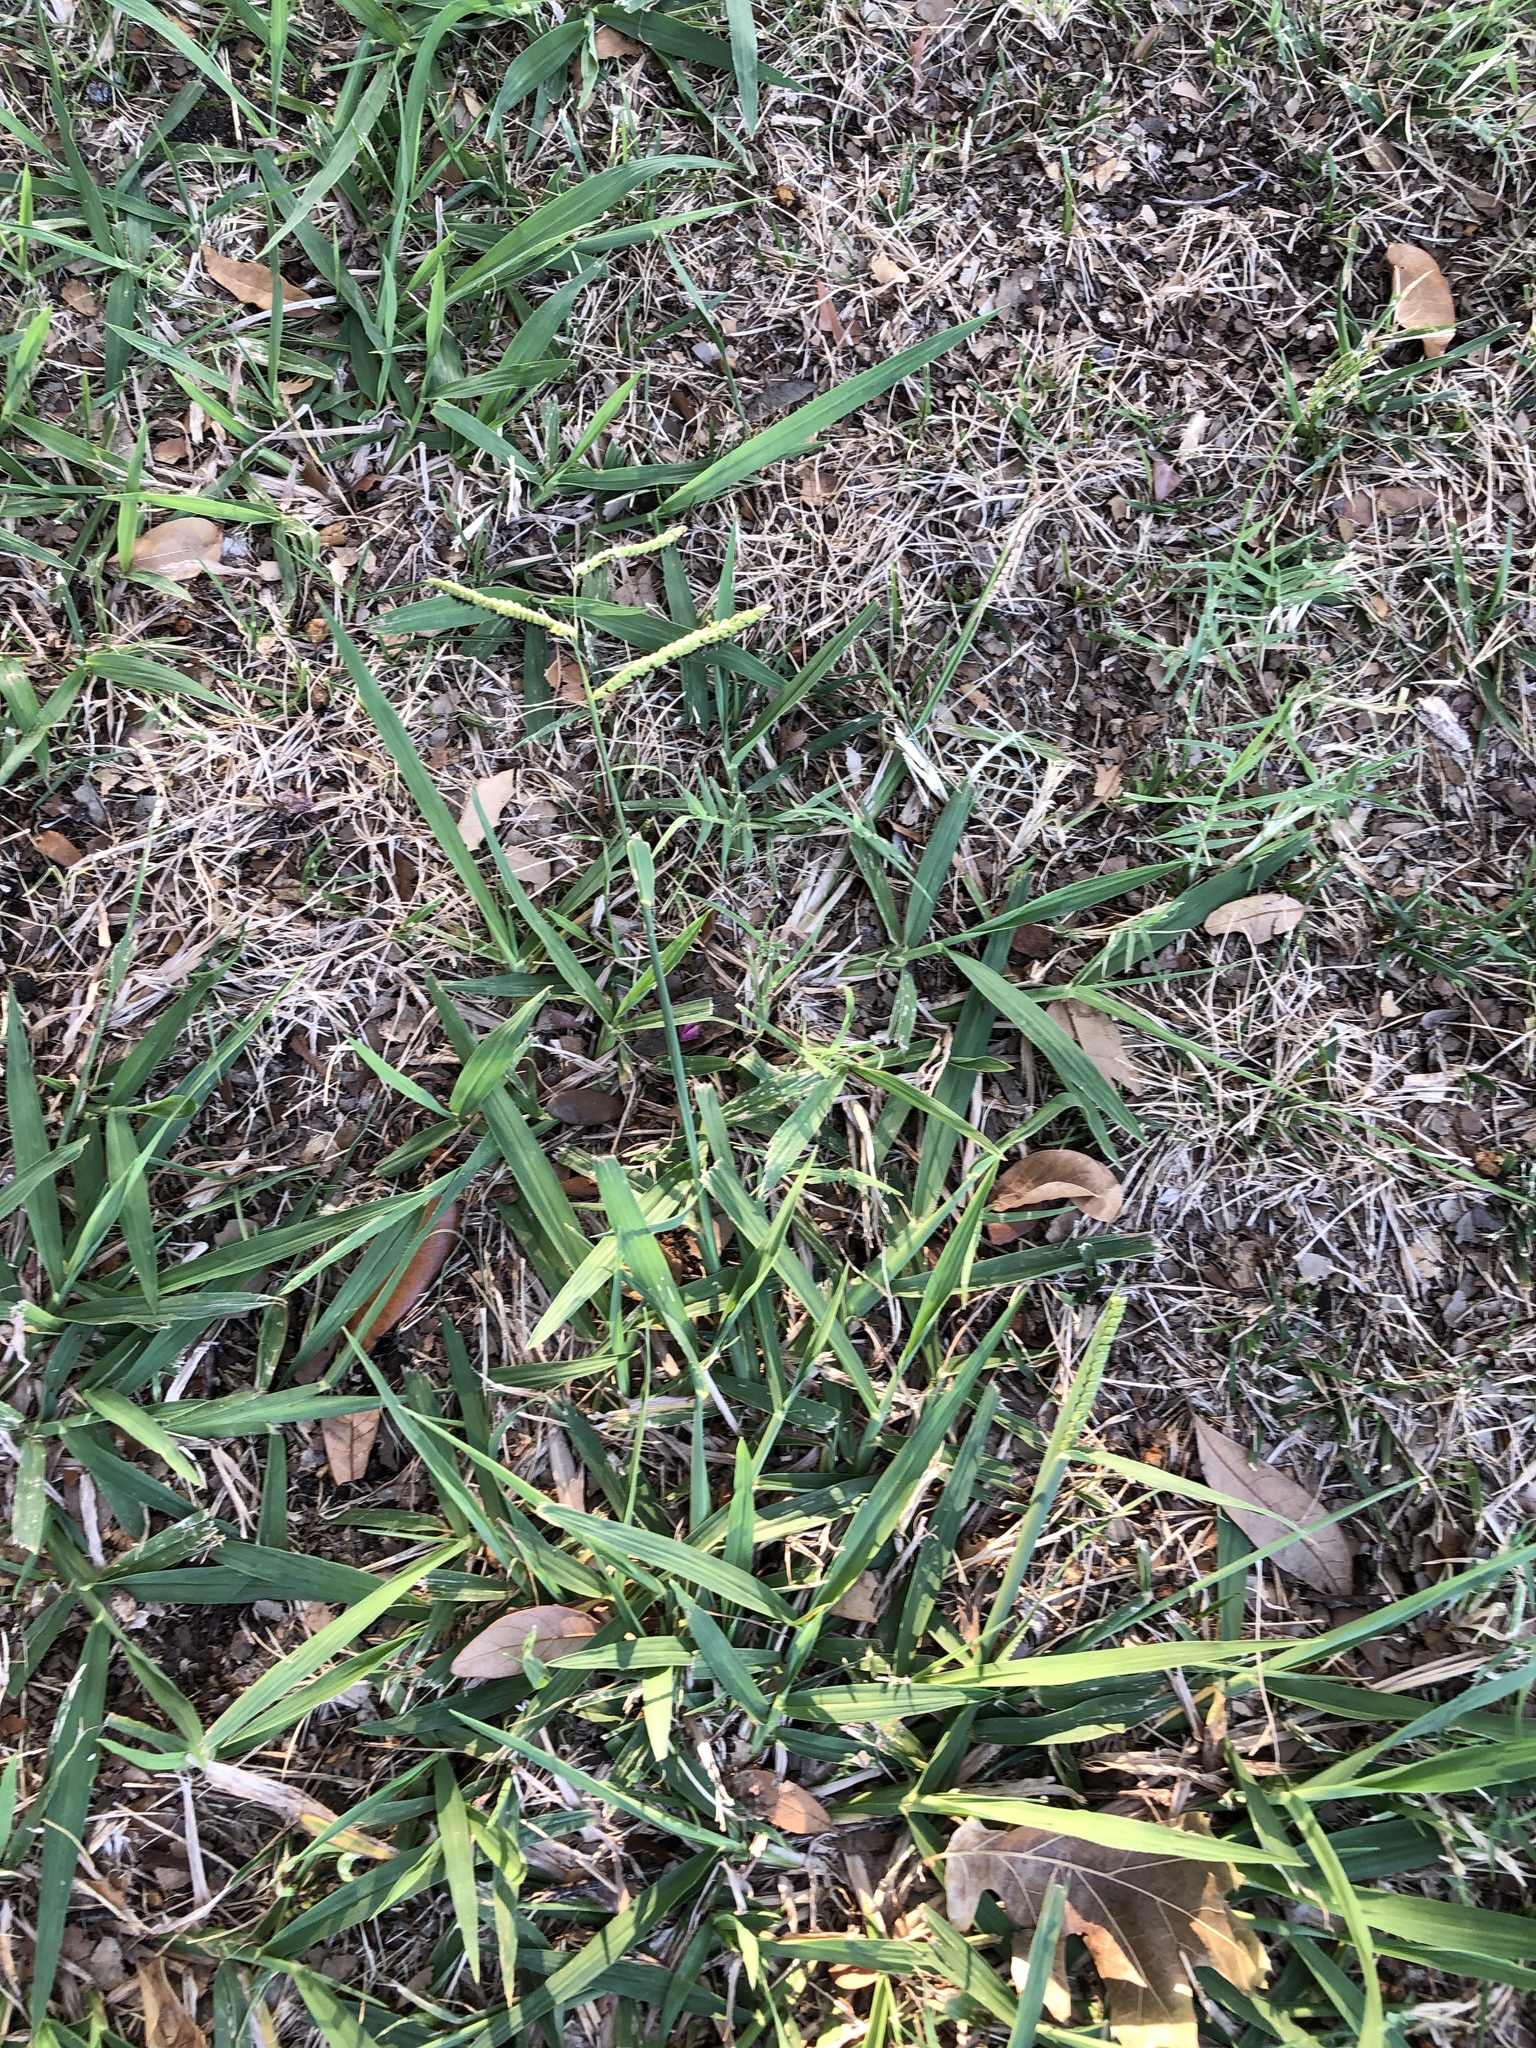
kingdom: Plantae
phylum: Tracheophyta
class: Liliopsida
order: Poales
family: Poaceae
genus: Paspalum
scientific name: Paspalum dilatatum
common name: Dallisgrass
